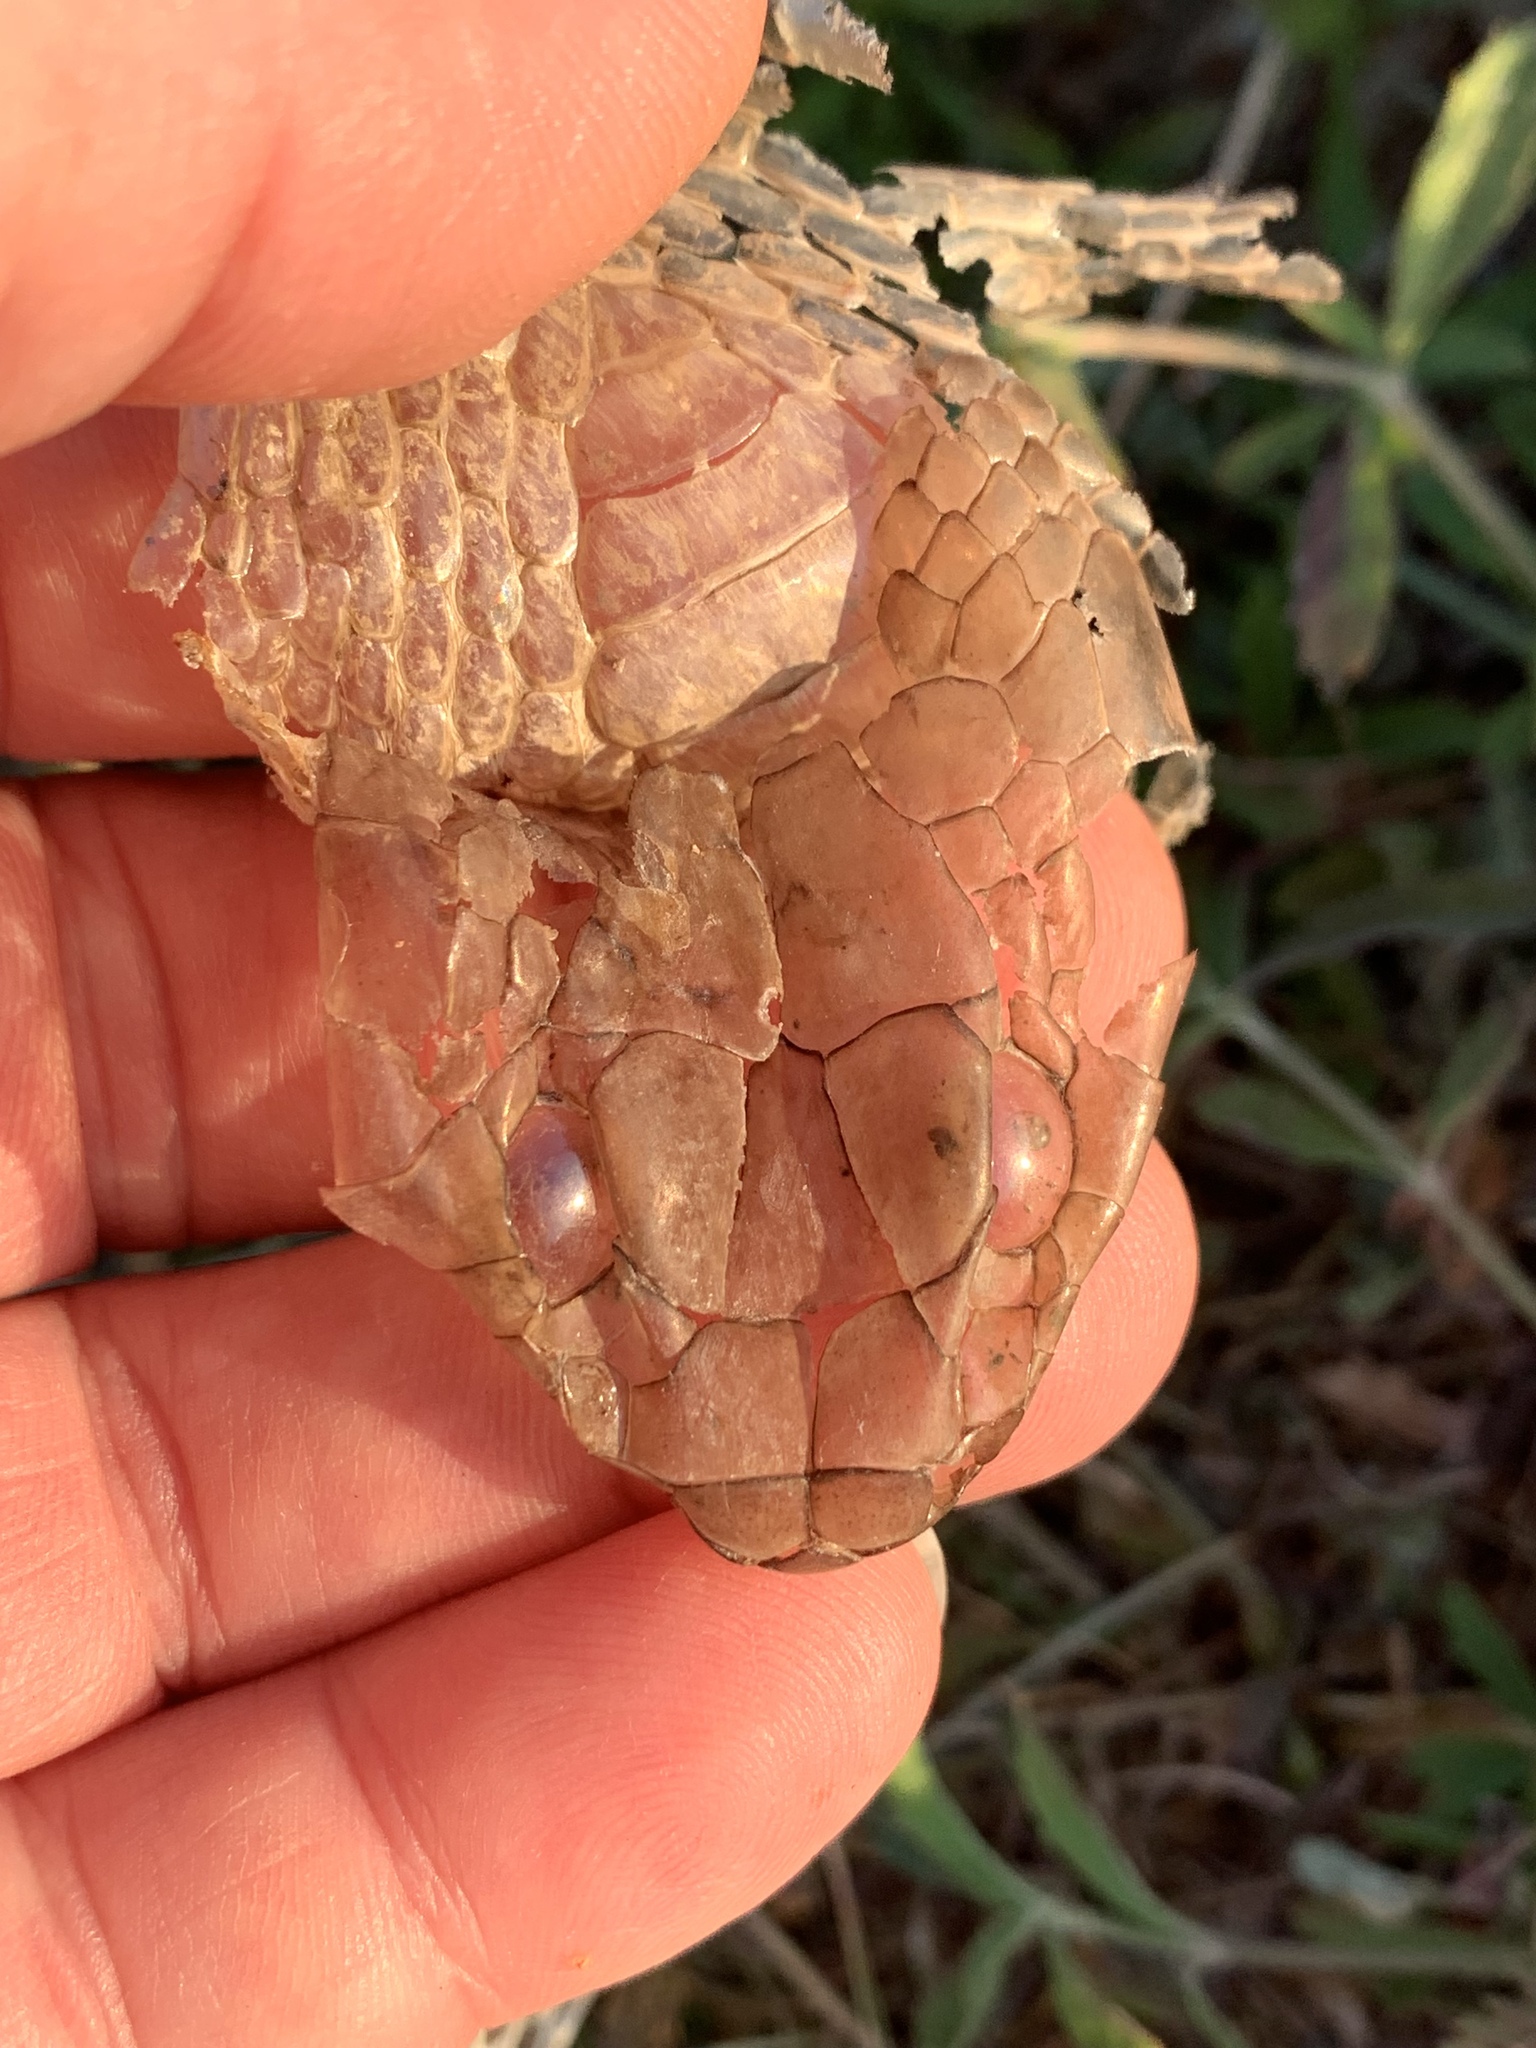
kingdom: Animalia
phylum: Chordata
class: Squamata
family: Colubridae
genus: Masticophis
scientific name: Masticophis flagellum
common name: Coachwhip
